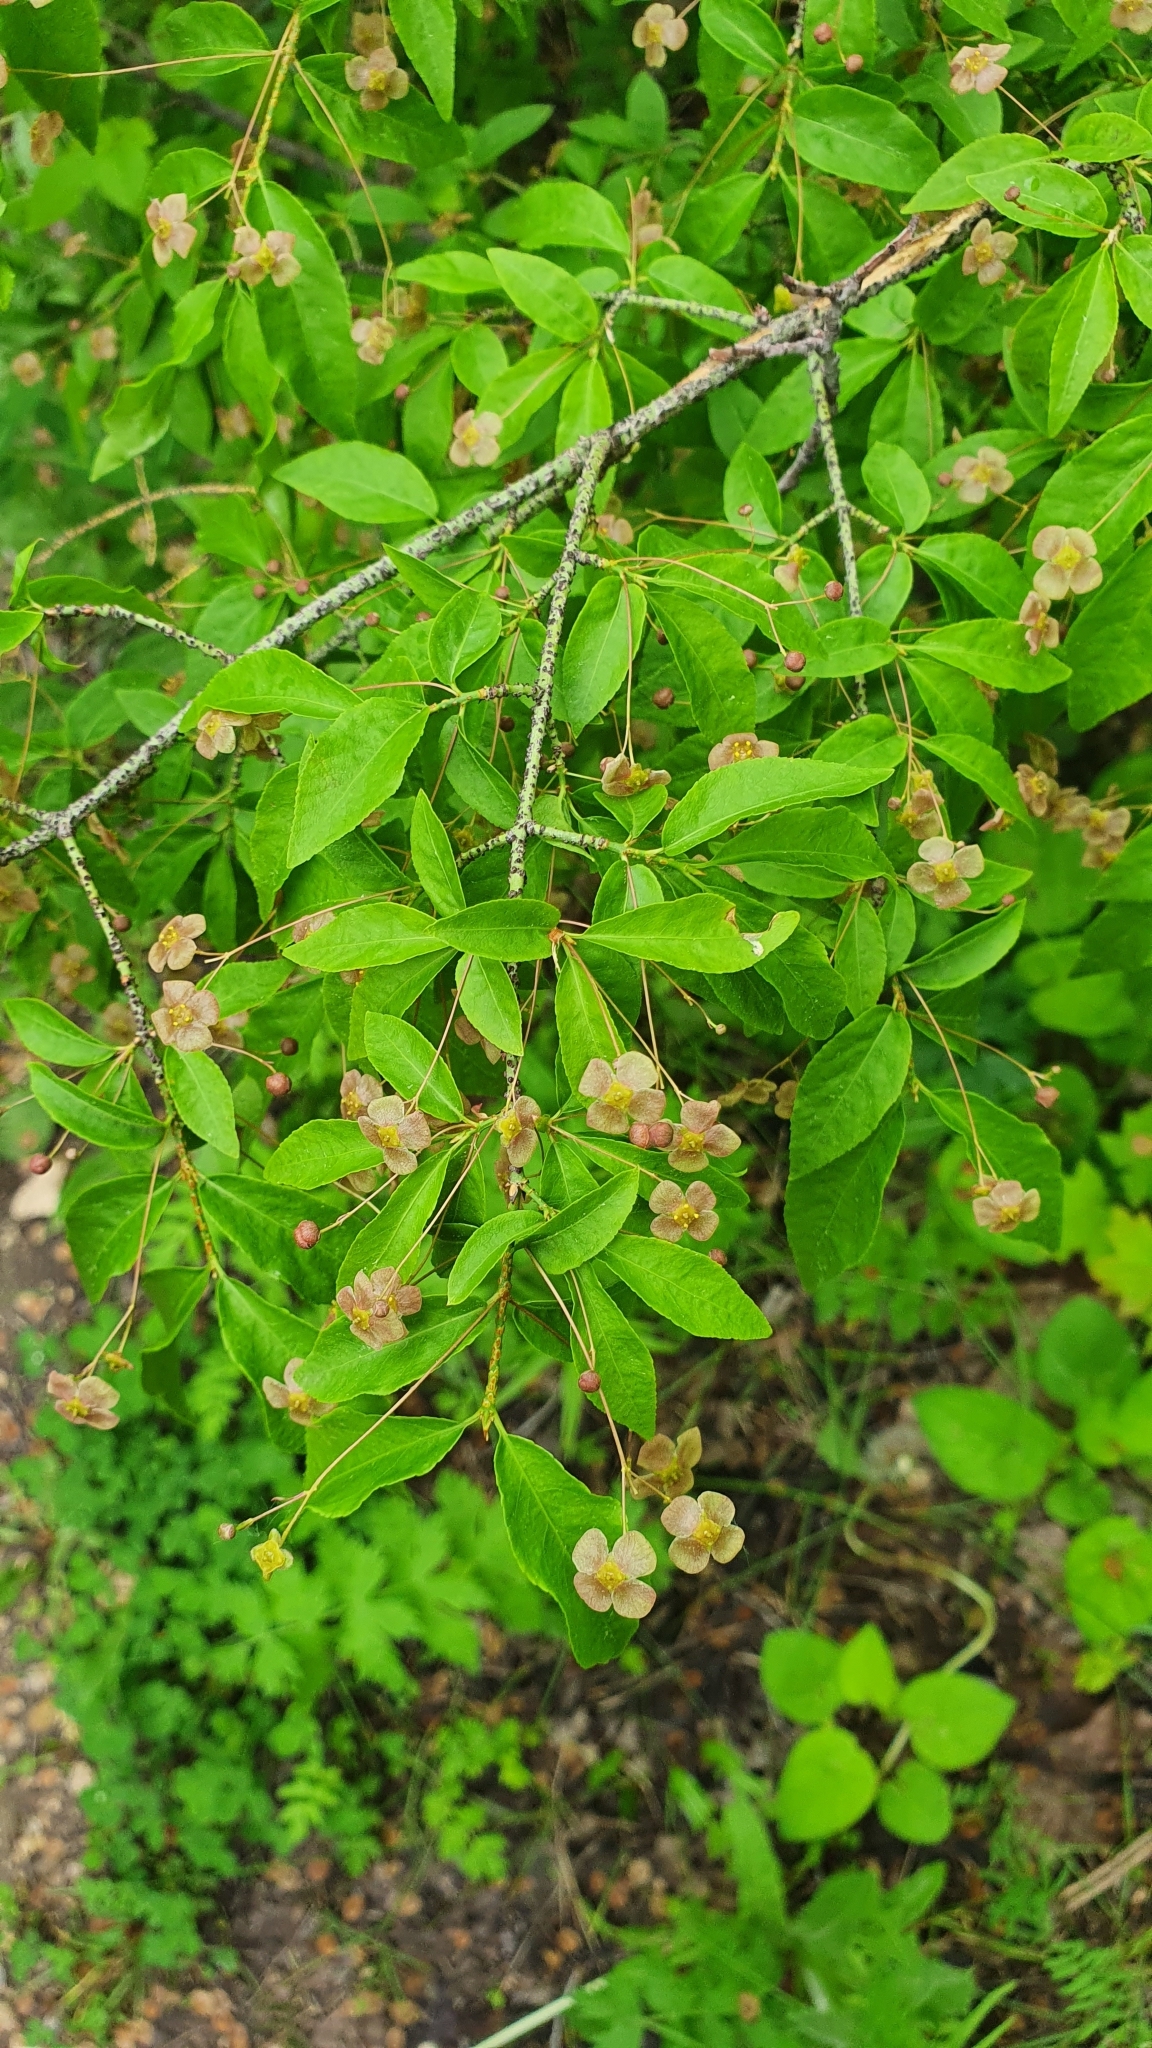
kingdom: Plantae
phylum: Tracheophyta
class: Magnoliopsida
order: Celastrales
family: Celastraceae
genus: Euonymus
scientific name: Euonymus verrucosus
